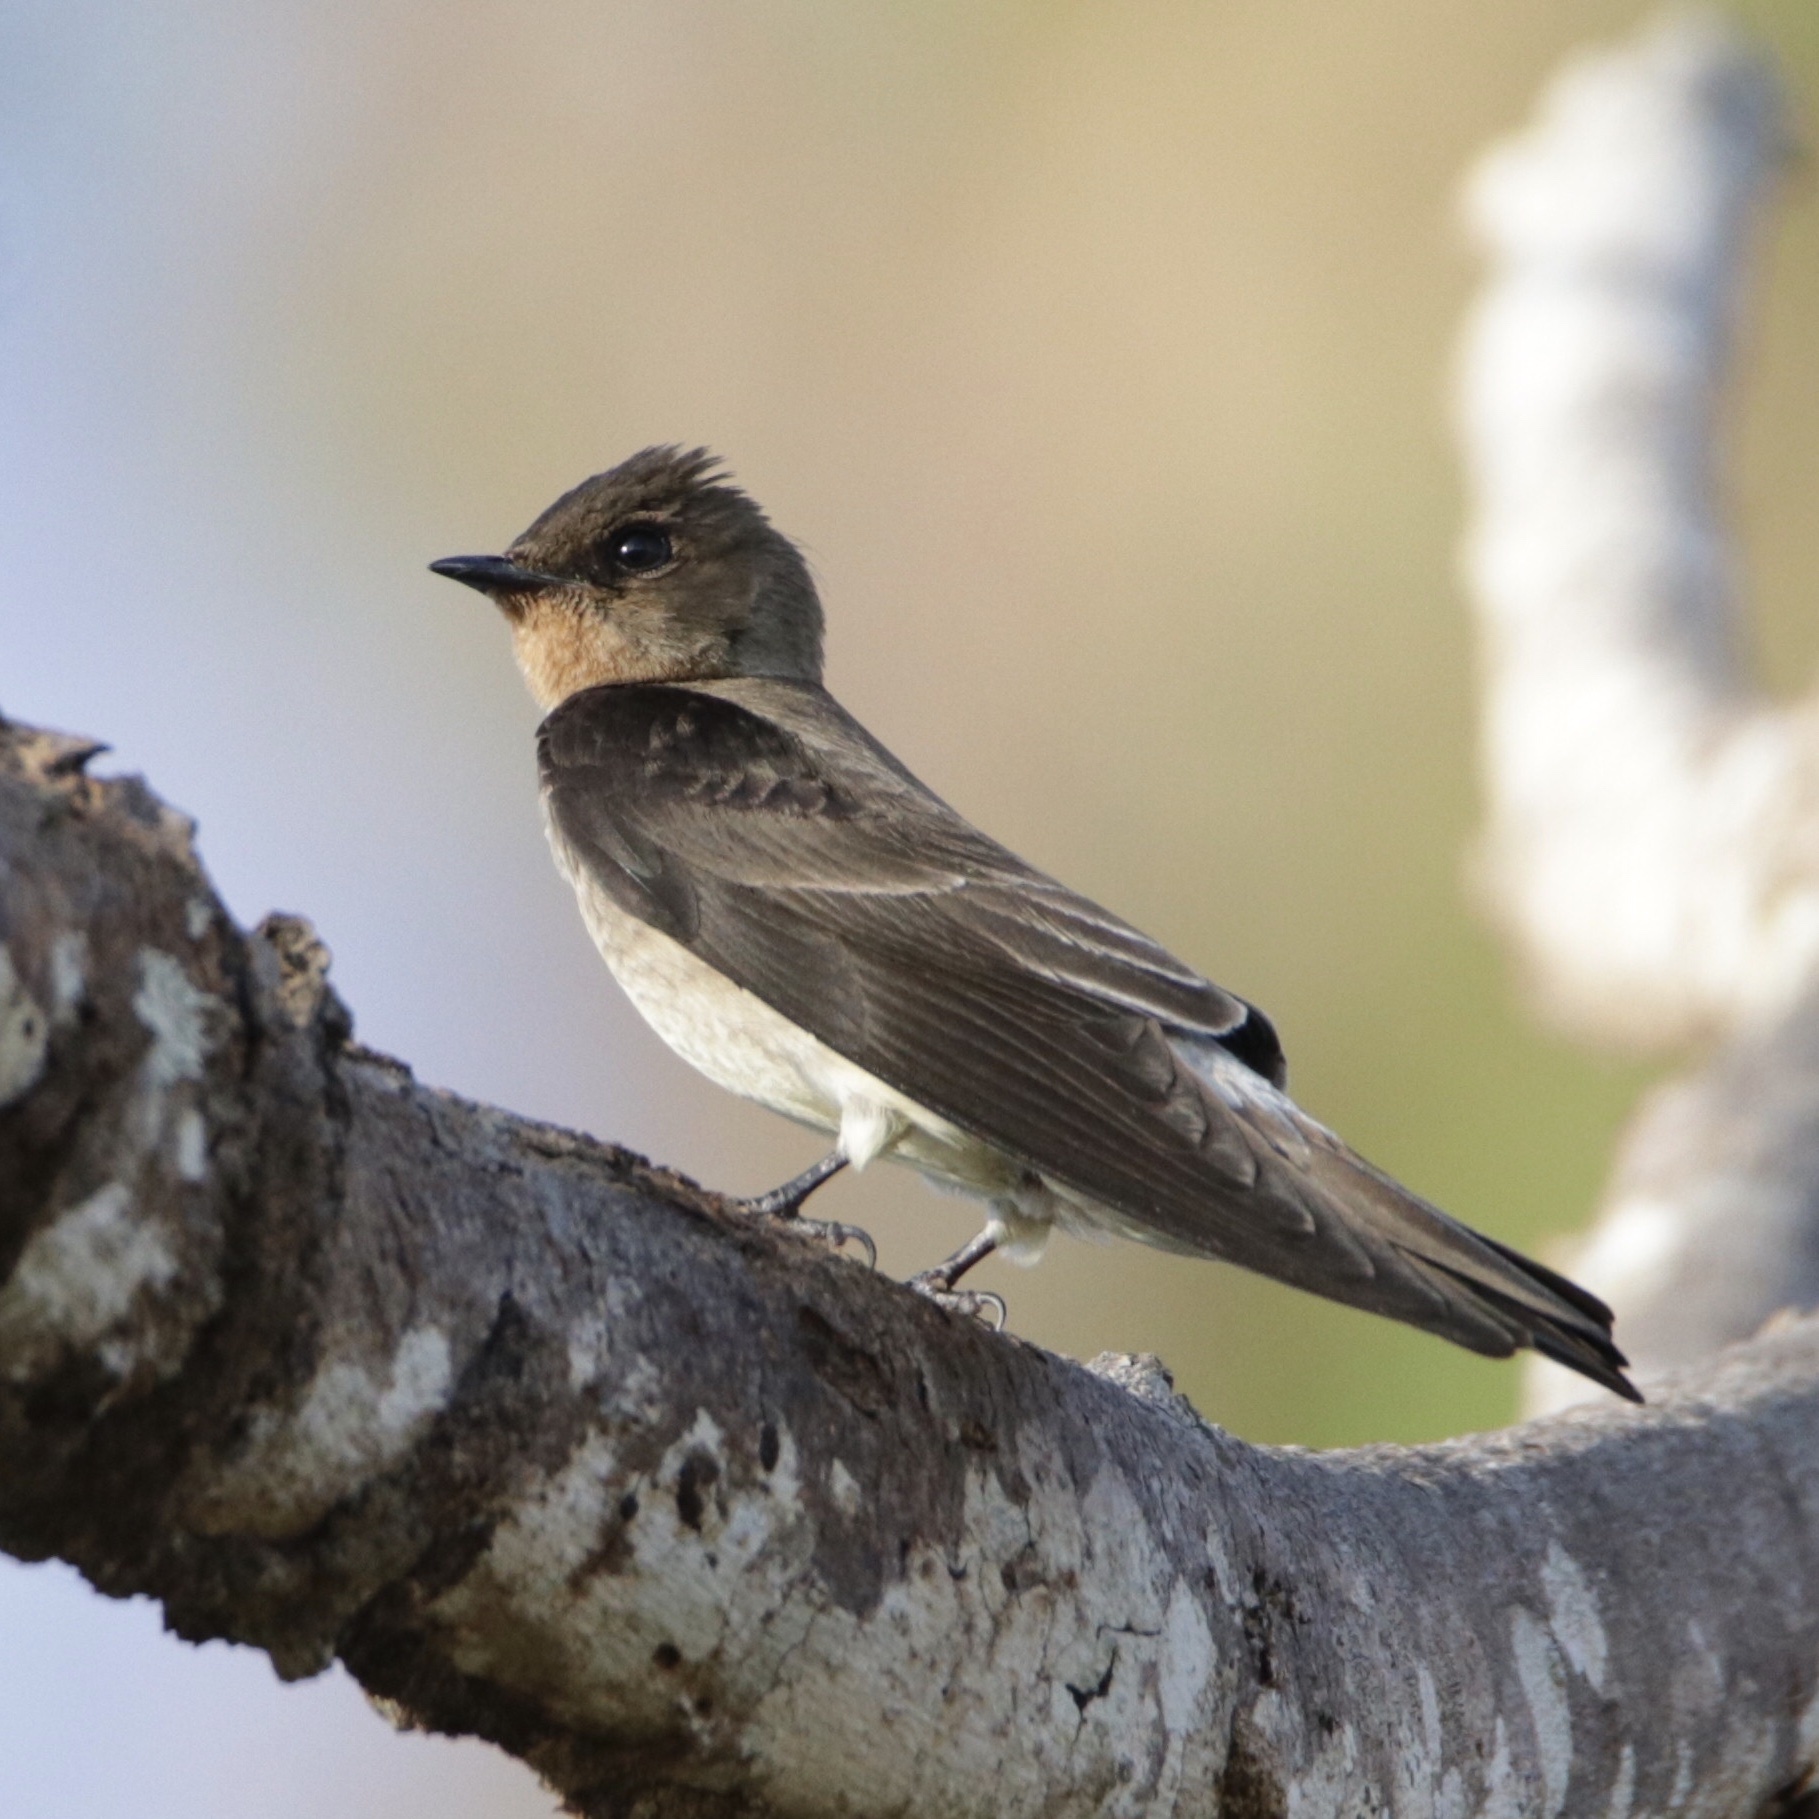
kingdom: Animalia
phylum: Chordata
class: Aves
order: Passeriformes
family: Hirundinidae
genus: Stelgidopteryx
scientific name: Stelgidopteryx ruficollis
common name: Southern rough-winged swallow
